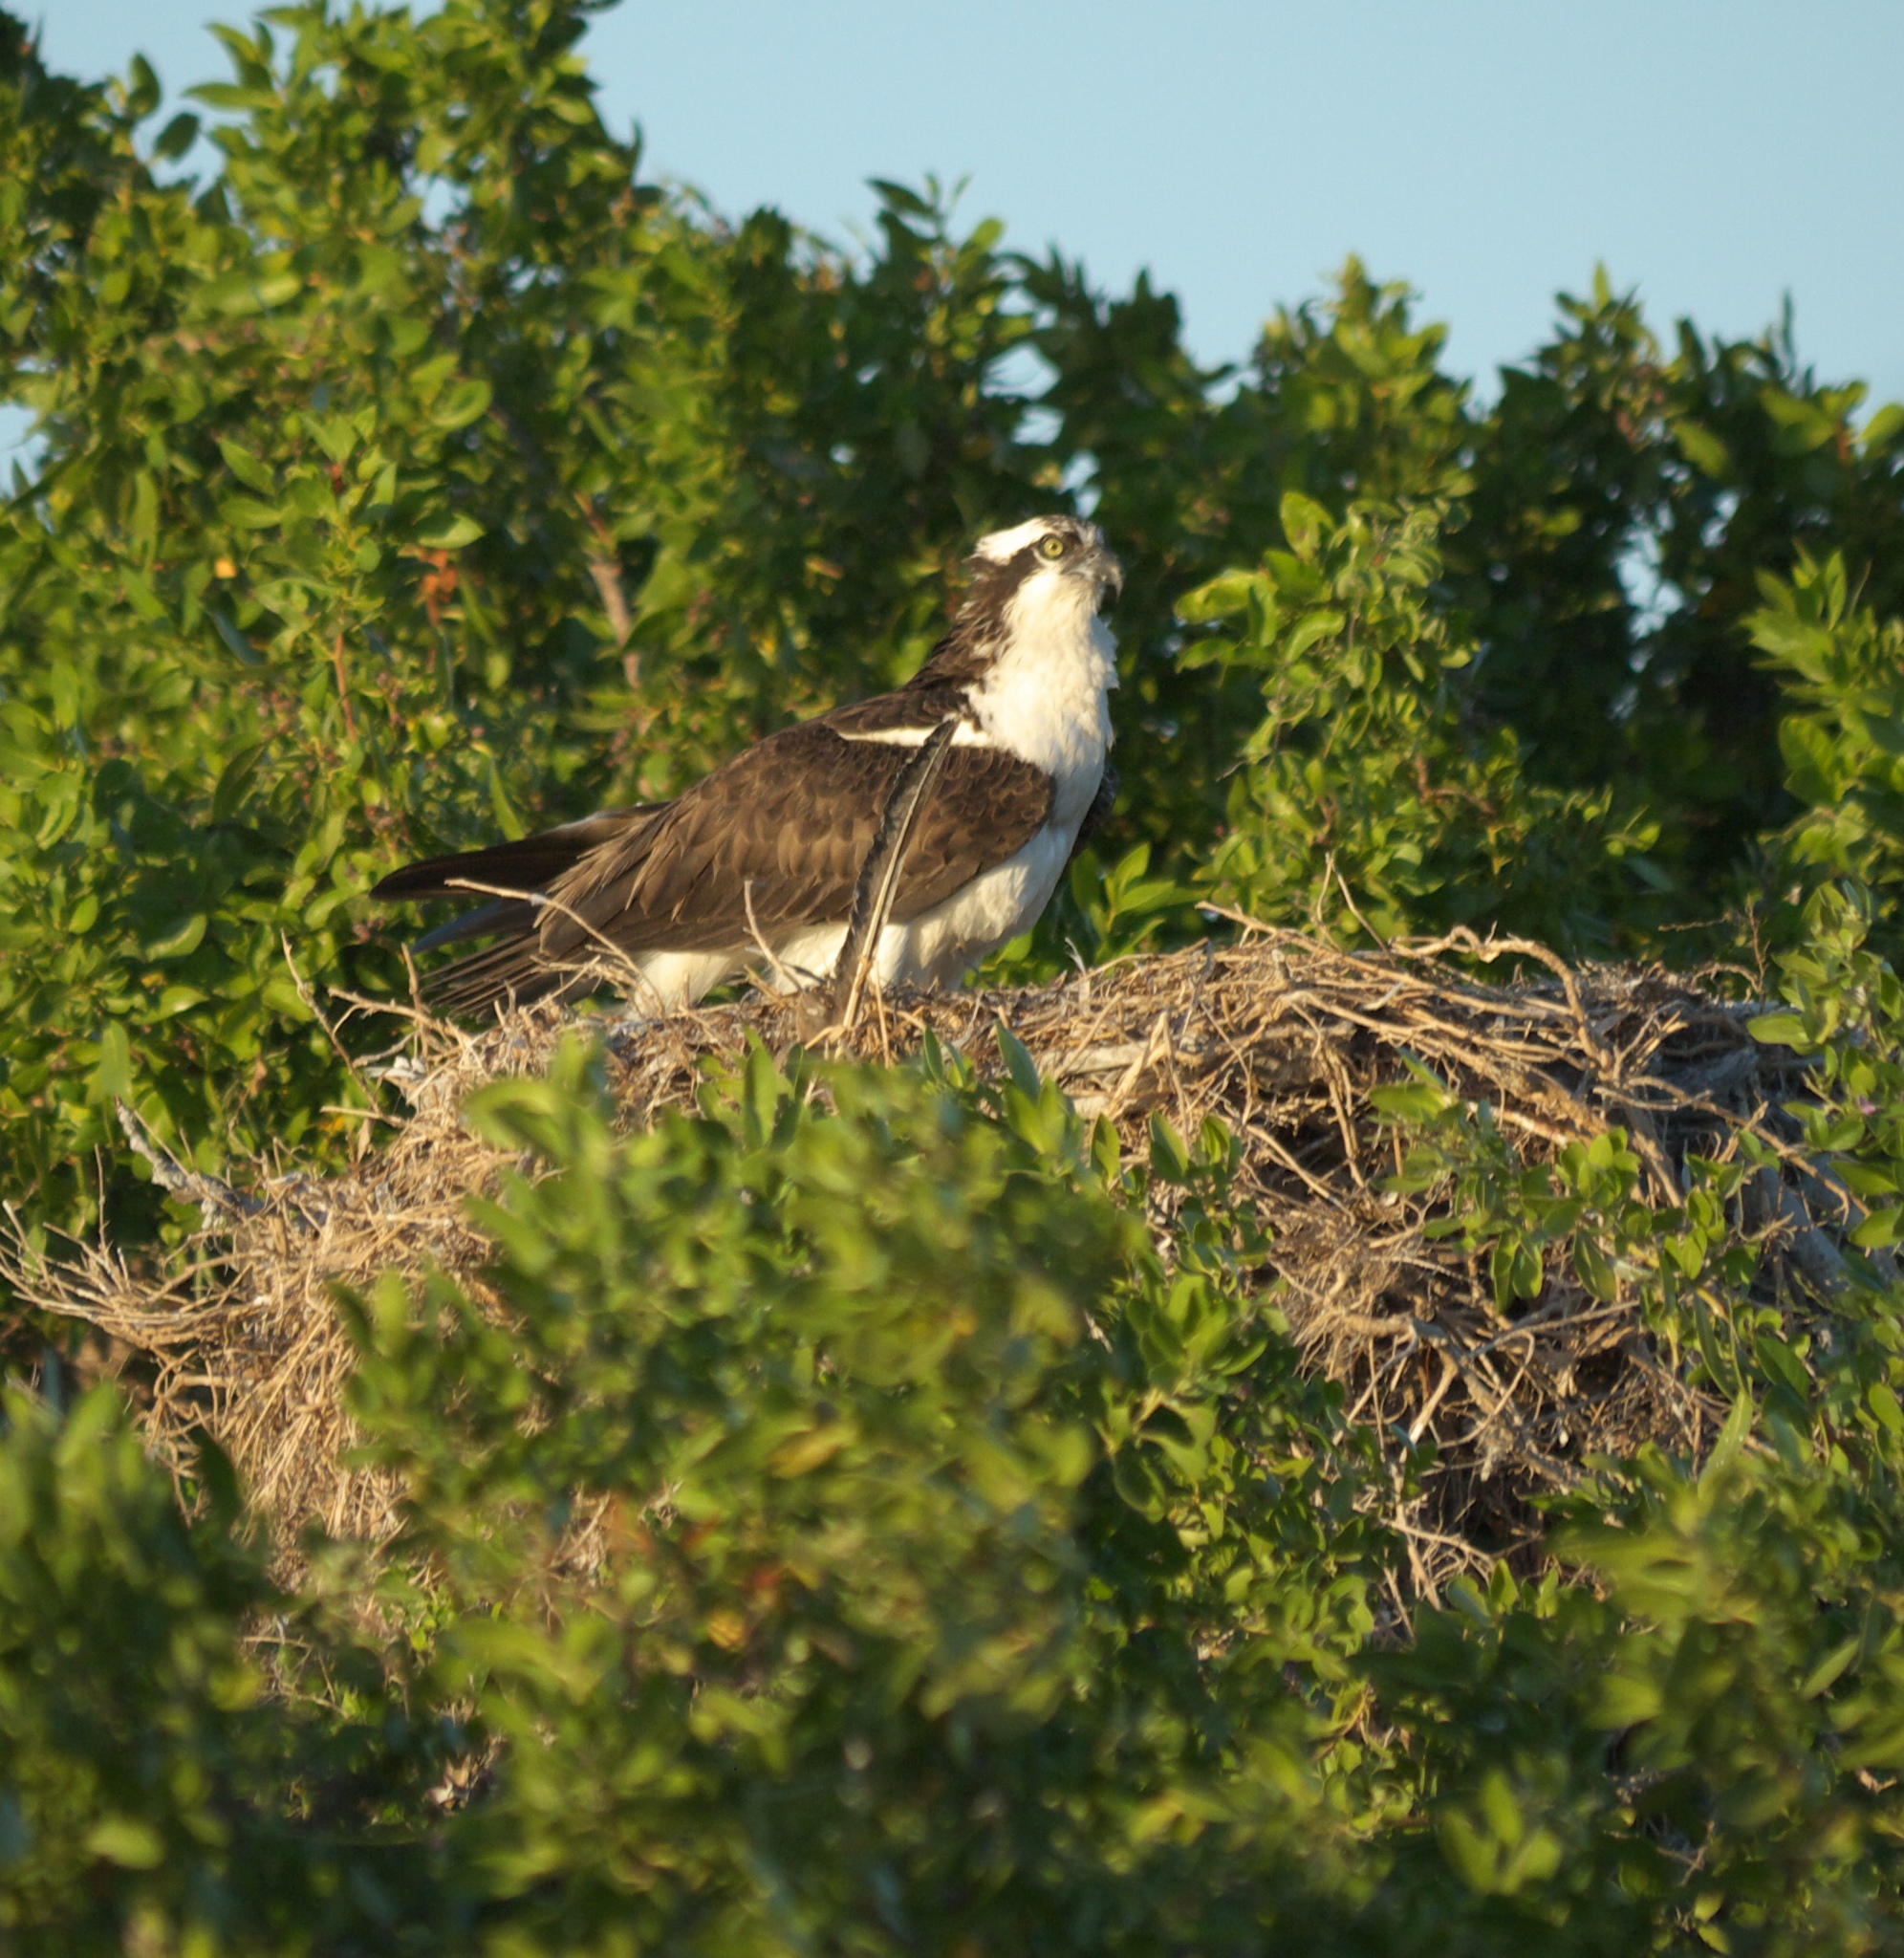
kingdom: Animalia
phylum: Chordata
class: Aves
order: Accipitriformes
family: Pandionidae
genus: Pandion
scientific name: Pandion haliaetus
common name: Osprey
